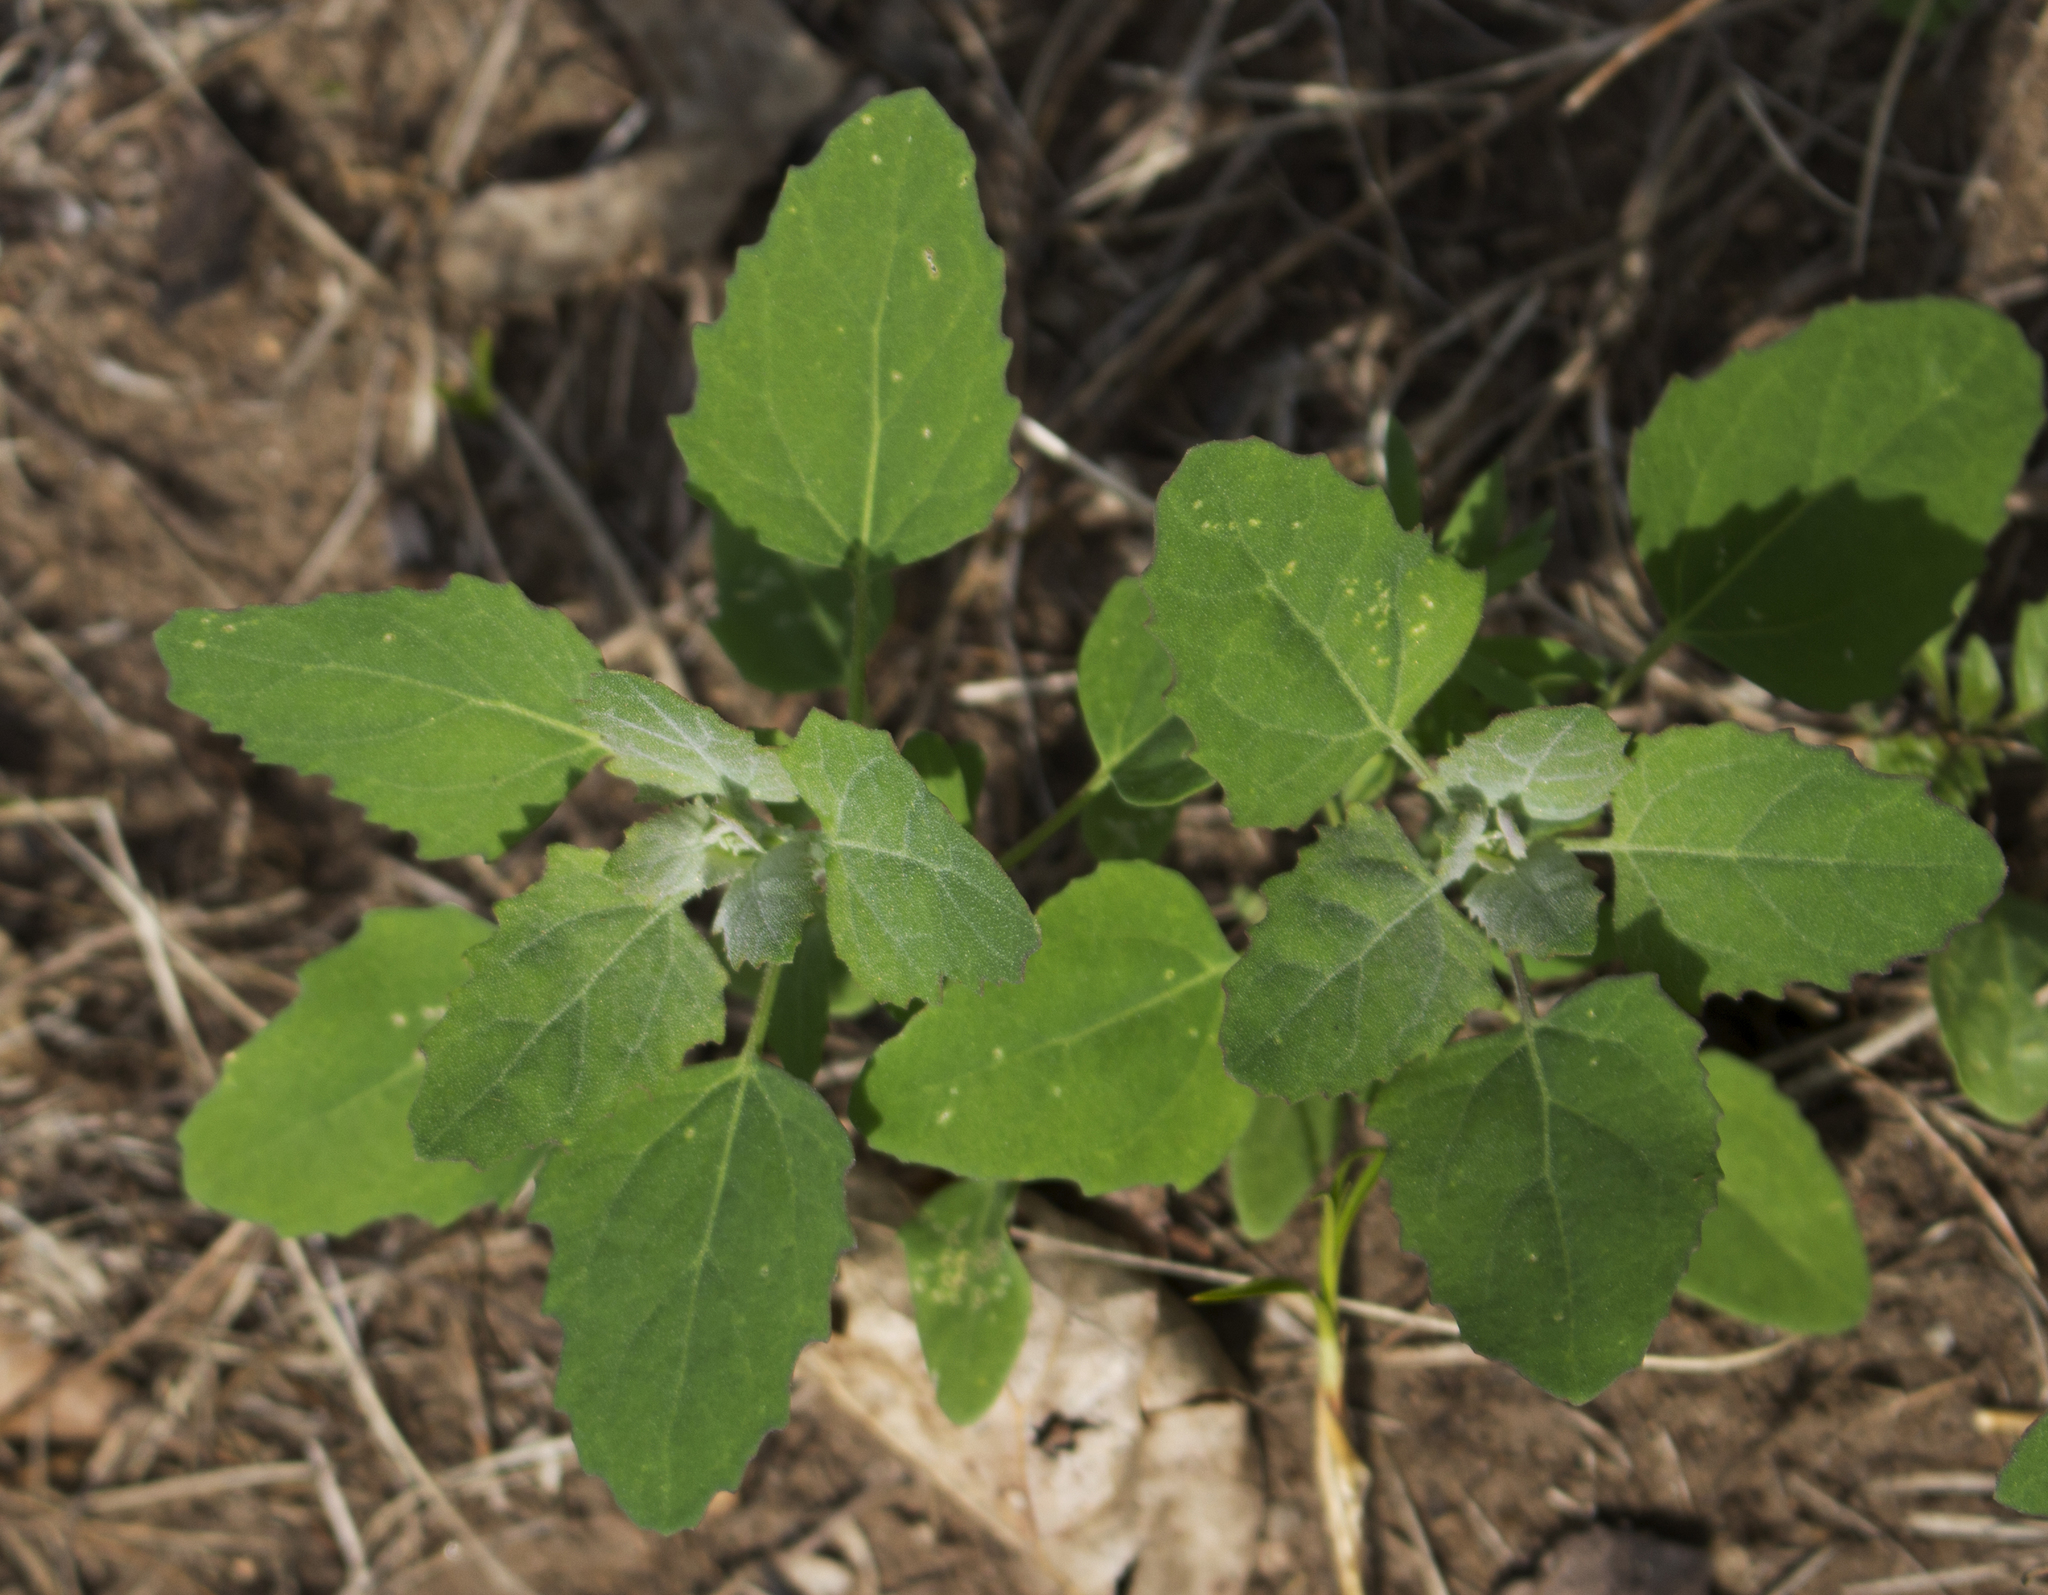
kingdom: Plantae
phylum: Tracheophyta
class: Magnoliopsida
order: Caryophyllales
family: Amaranthaceae
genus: Chenopodium
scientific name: Chenopodium album
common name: Fat-hen
